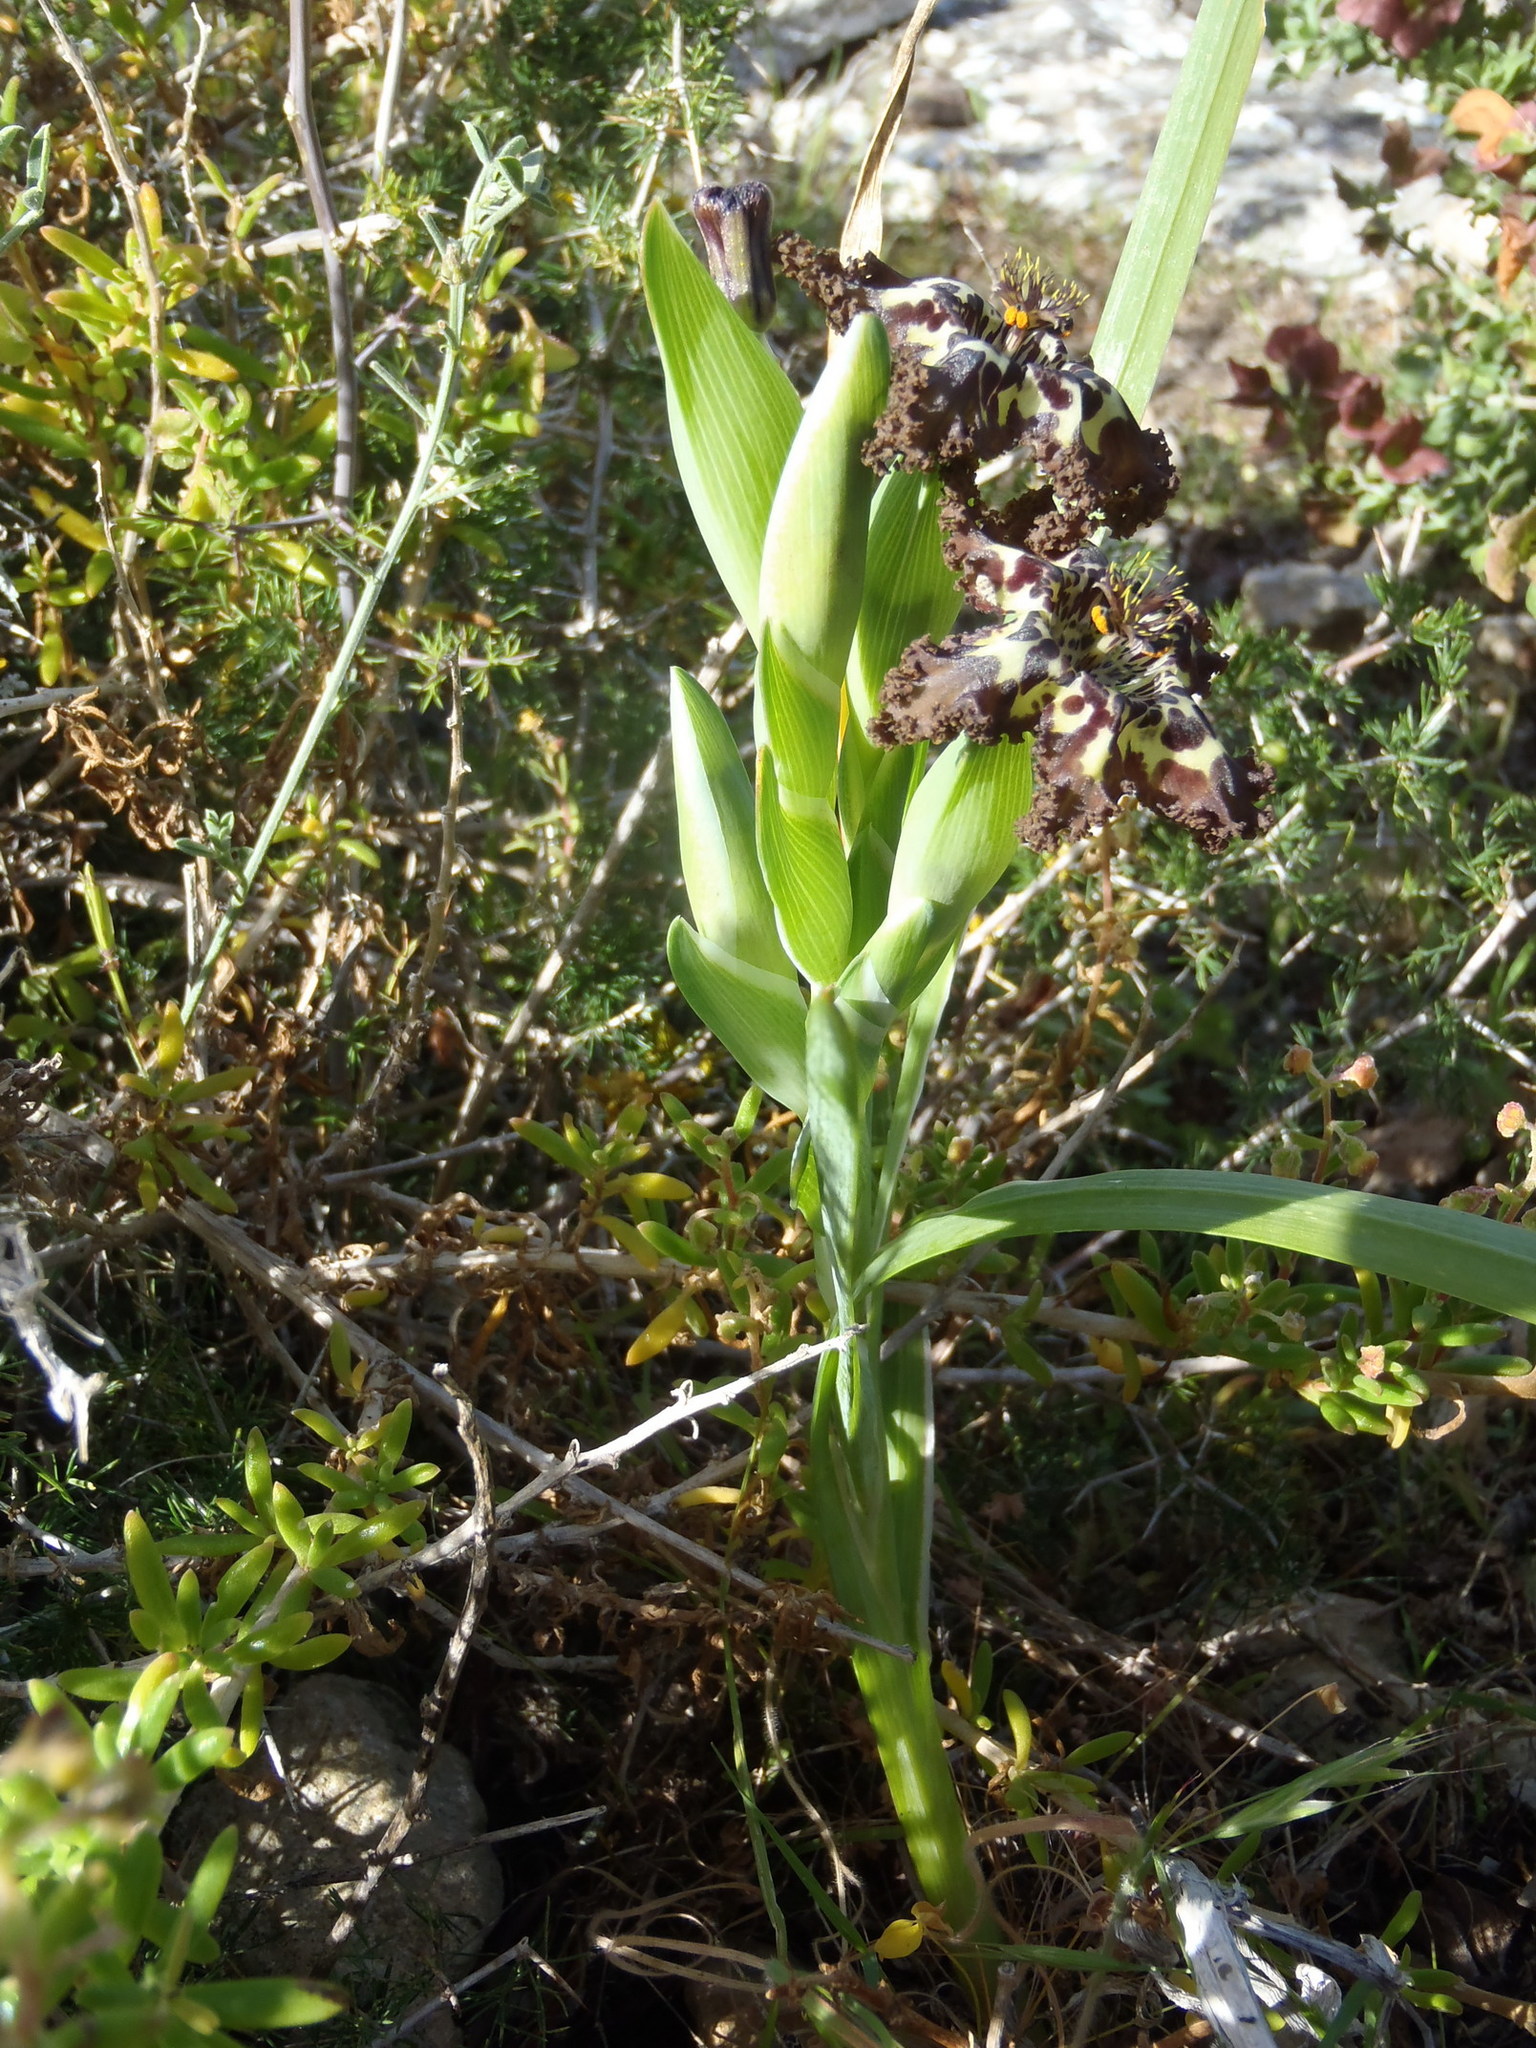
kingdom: Plantae
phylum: Tracheophyta
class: Liliopsida
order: Asparagales
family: Iridaceae
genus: Ferraria
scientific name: Ferraria crispa
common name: Black-flag
